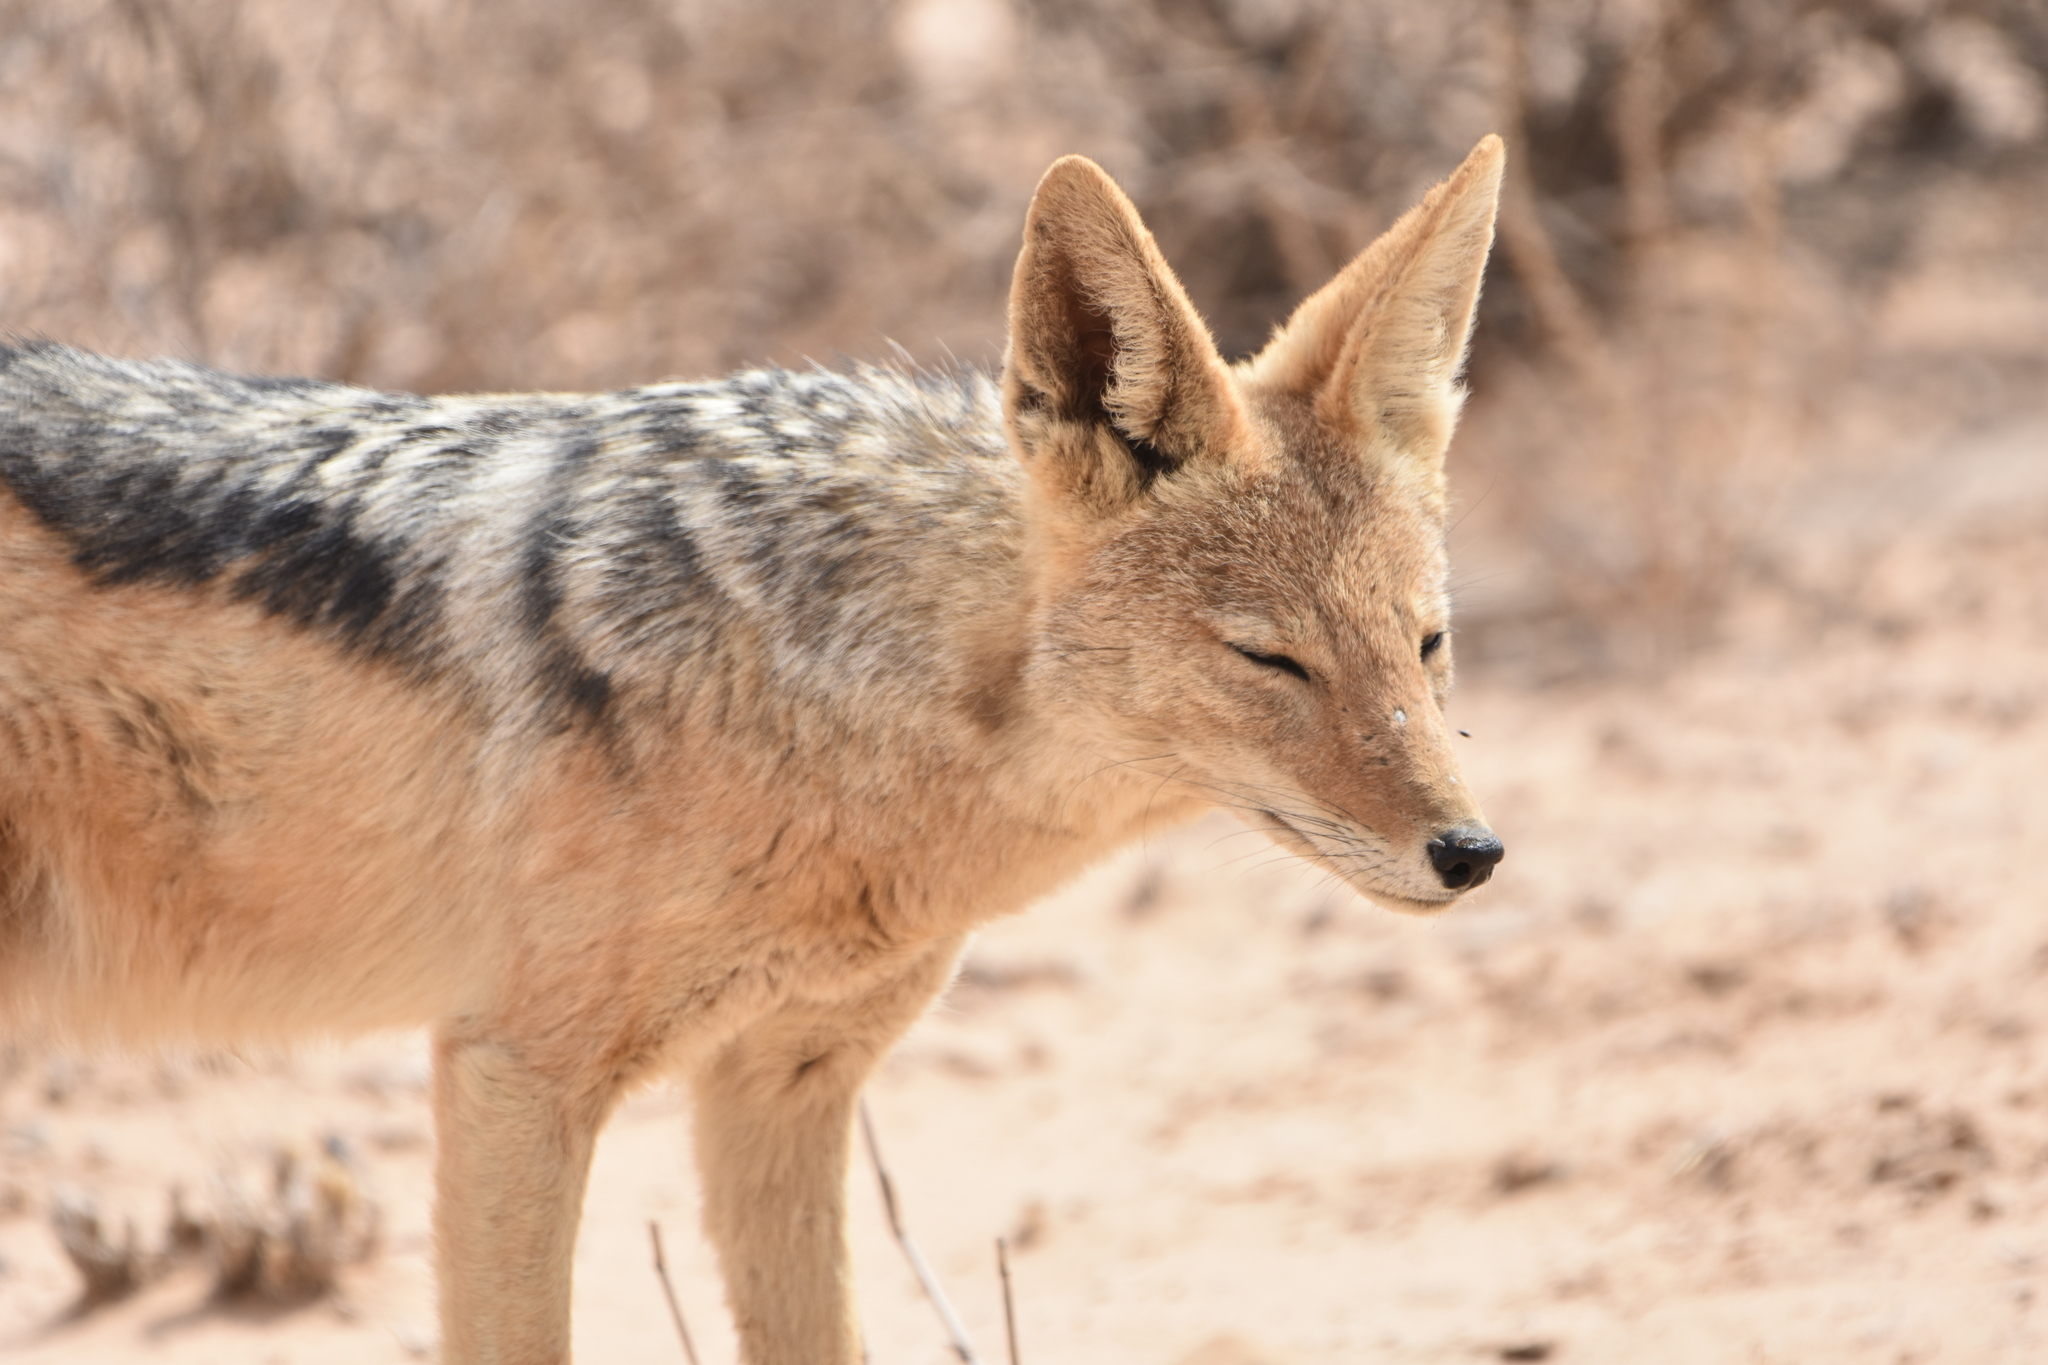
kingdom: Animalia
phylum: Chordata
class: Mammalia
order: Carnivora
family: Canidae
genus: Lupulella
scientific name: Lupulella
